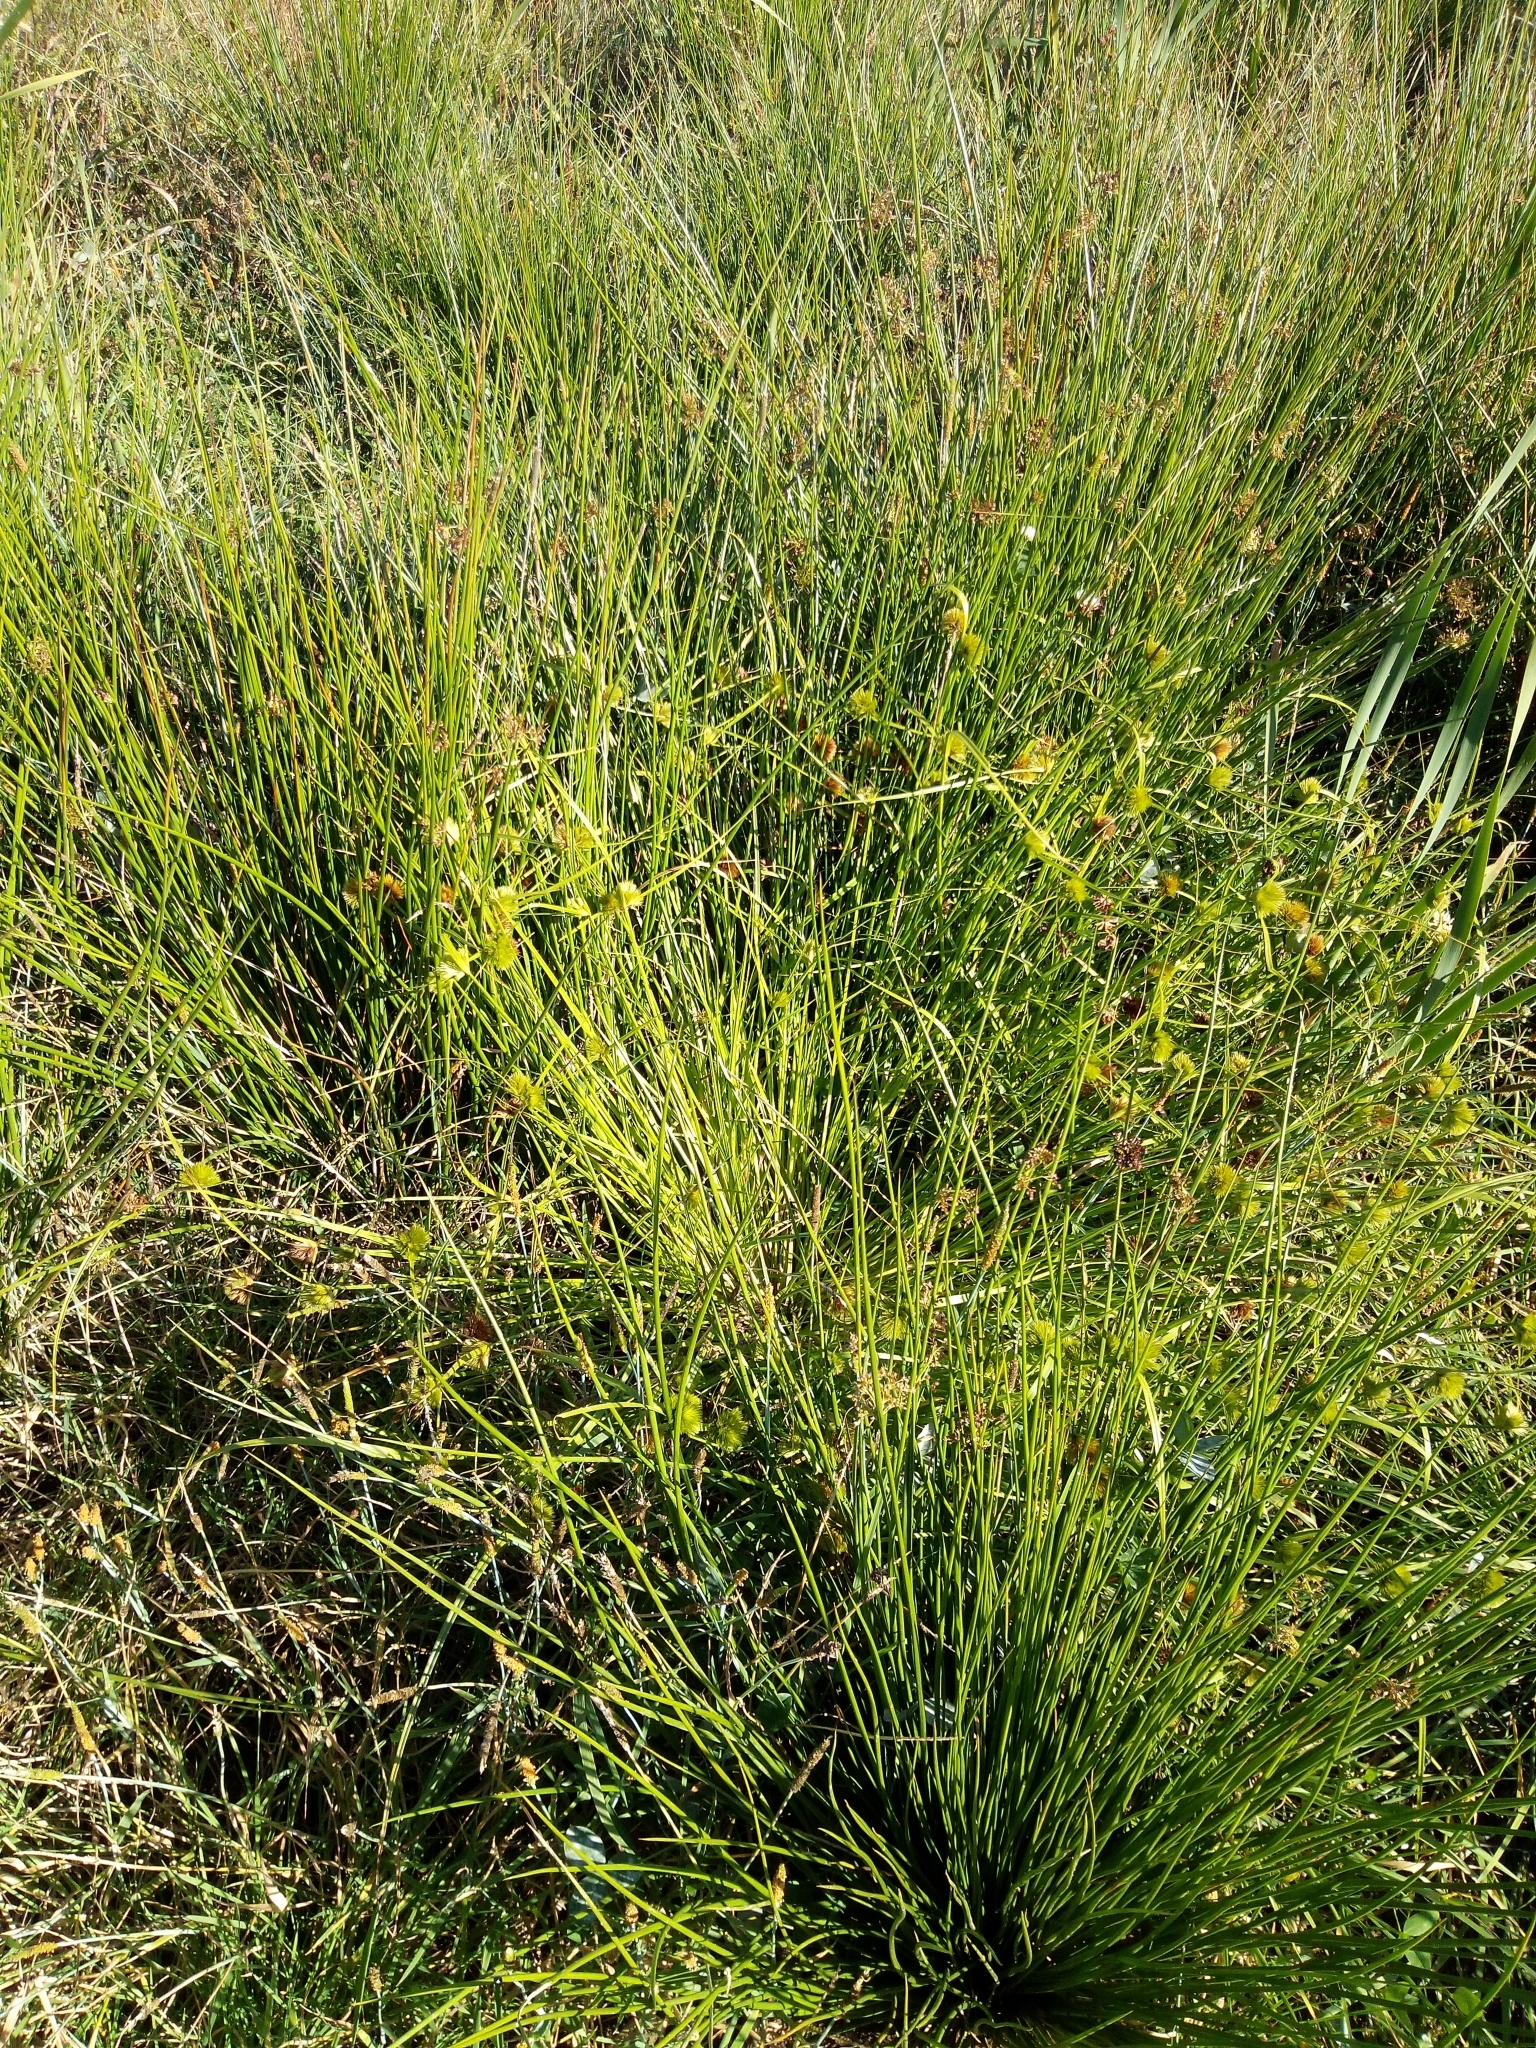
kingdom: Plantae
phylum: Tracheophyta
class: Liliopsida
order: Poales
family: Juncaceae
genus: Juncus
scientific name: Juncus effusus
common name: Soft rush
